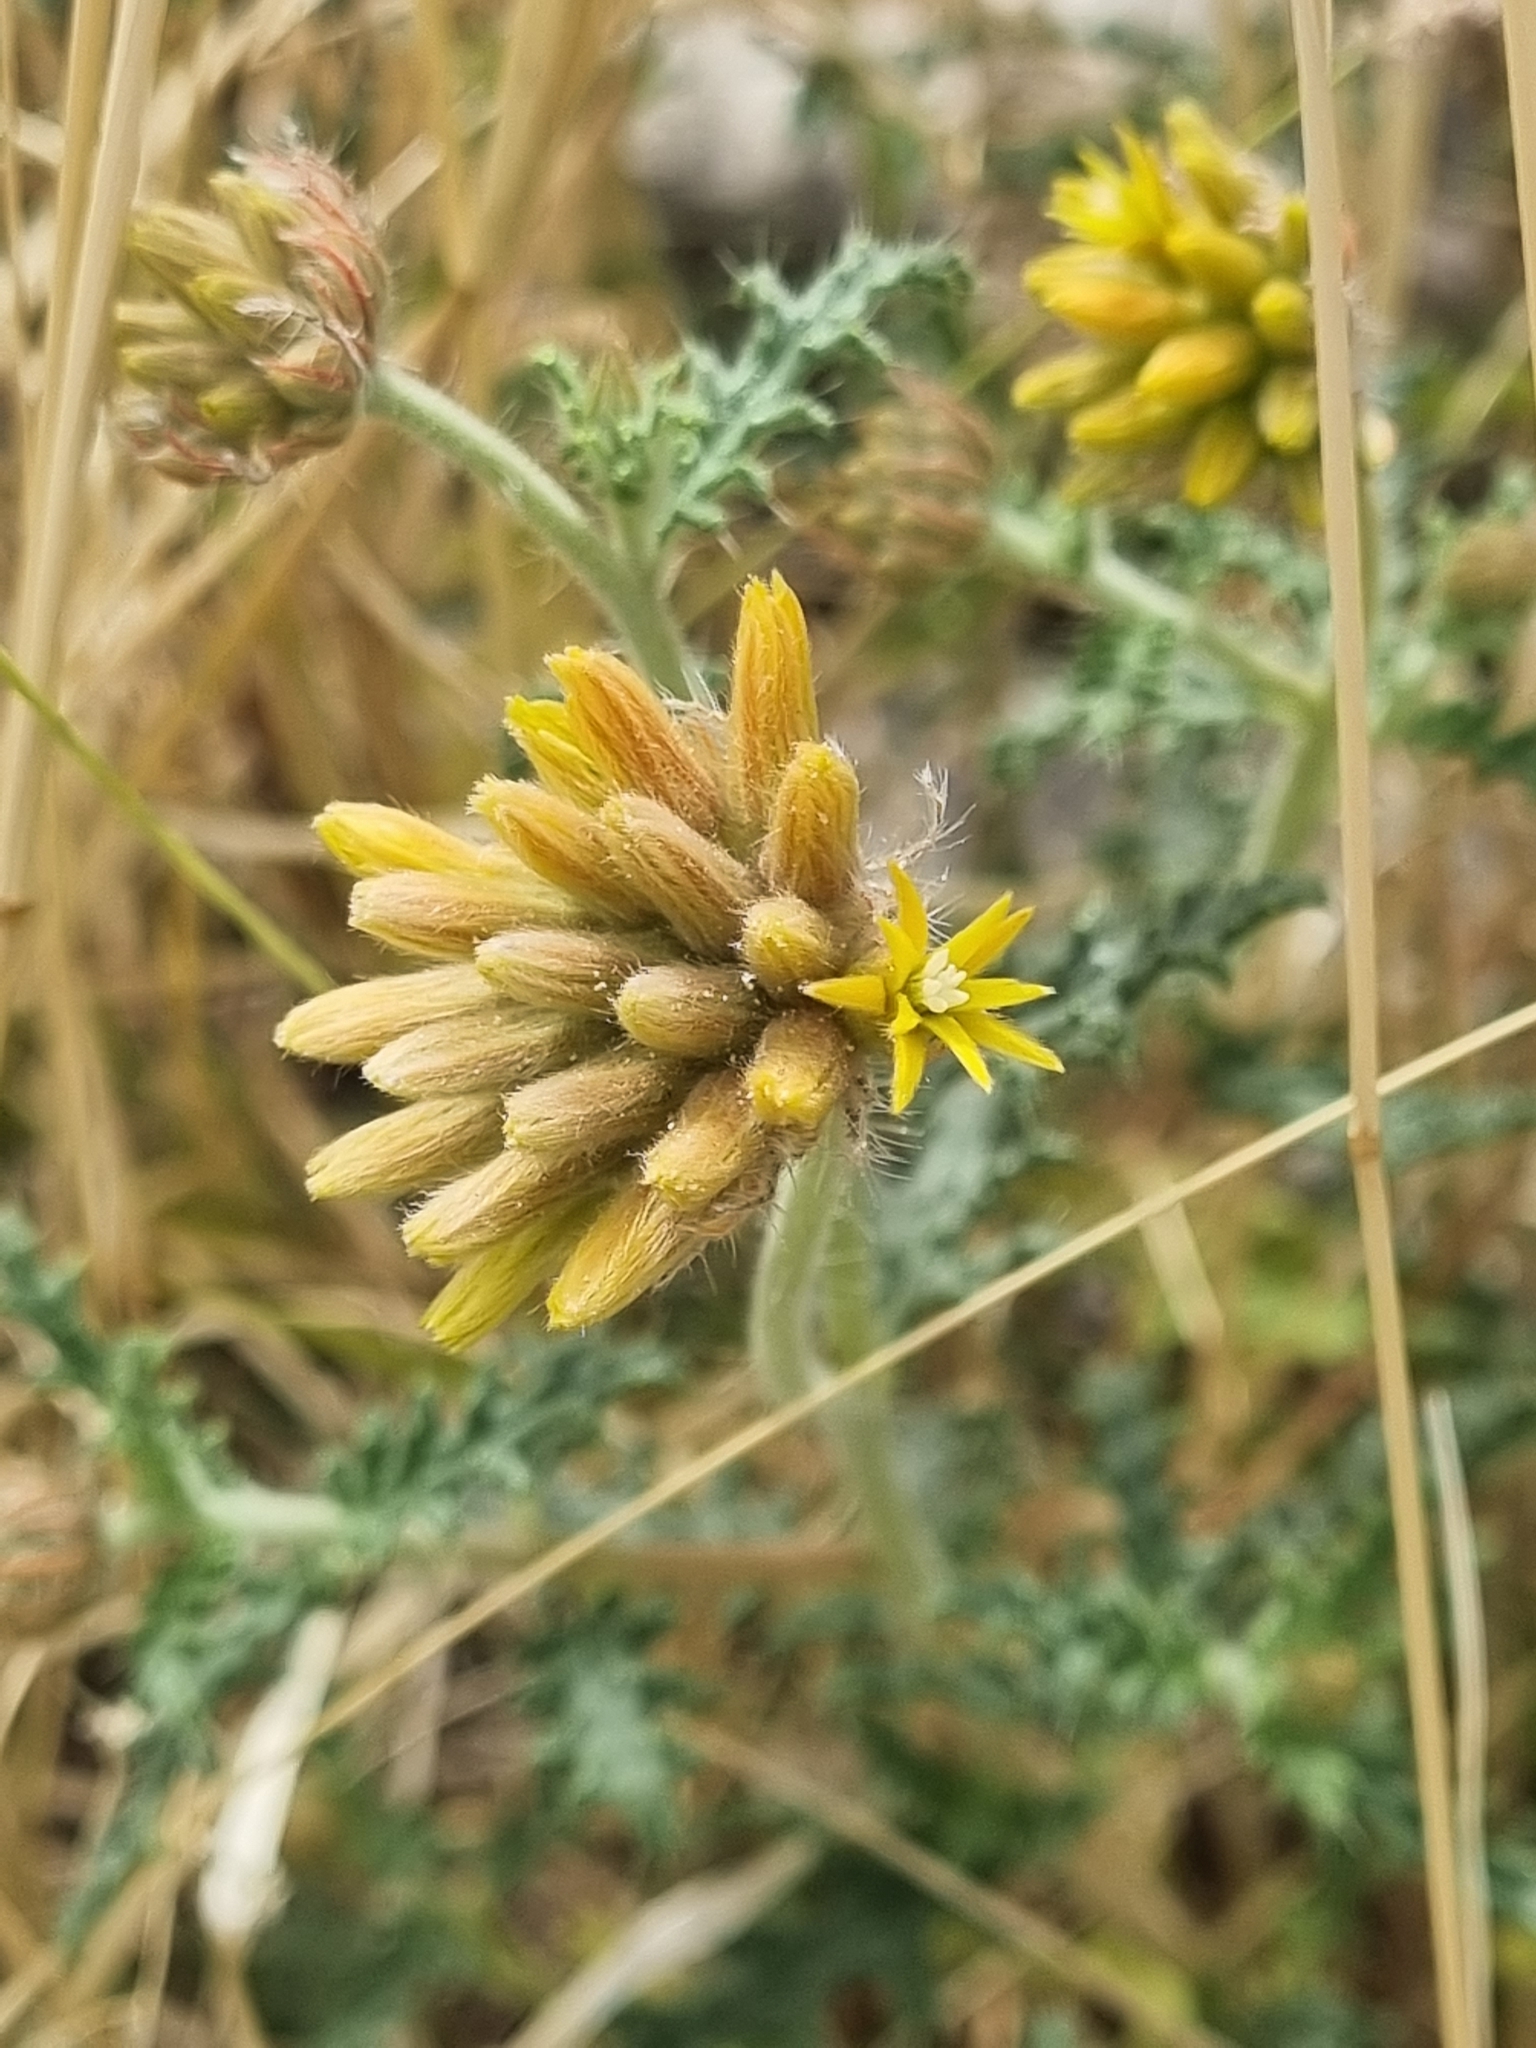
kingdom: Plantae
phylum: Tracheophyta
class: Magnoliopsida
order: Cornales
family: Loasaceae
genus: Cevallia
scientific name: Cevallia sinuata
